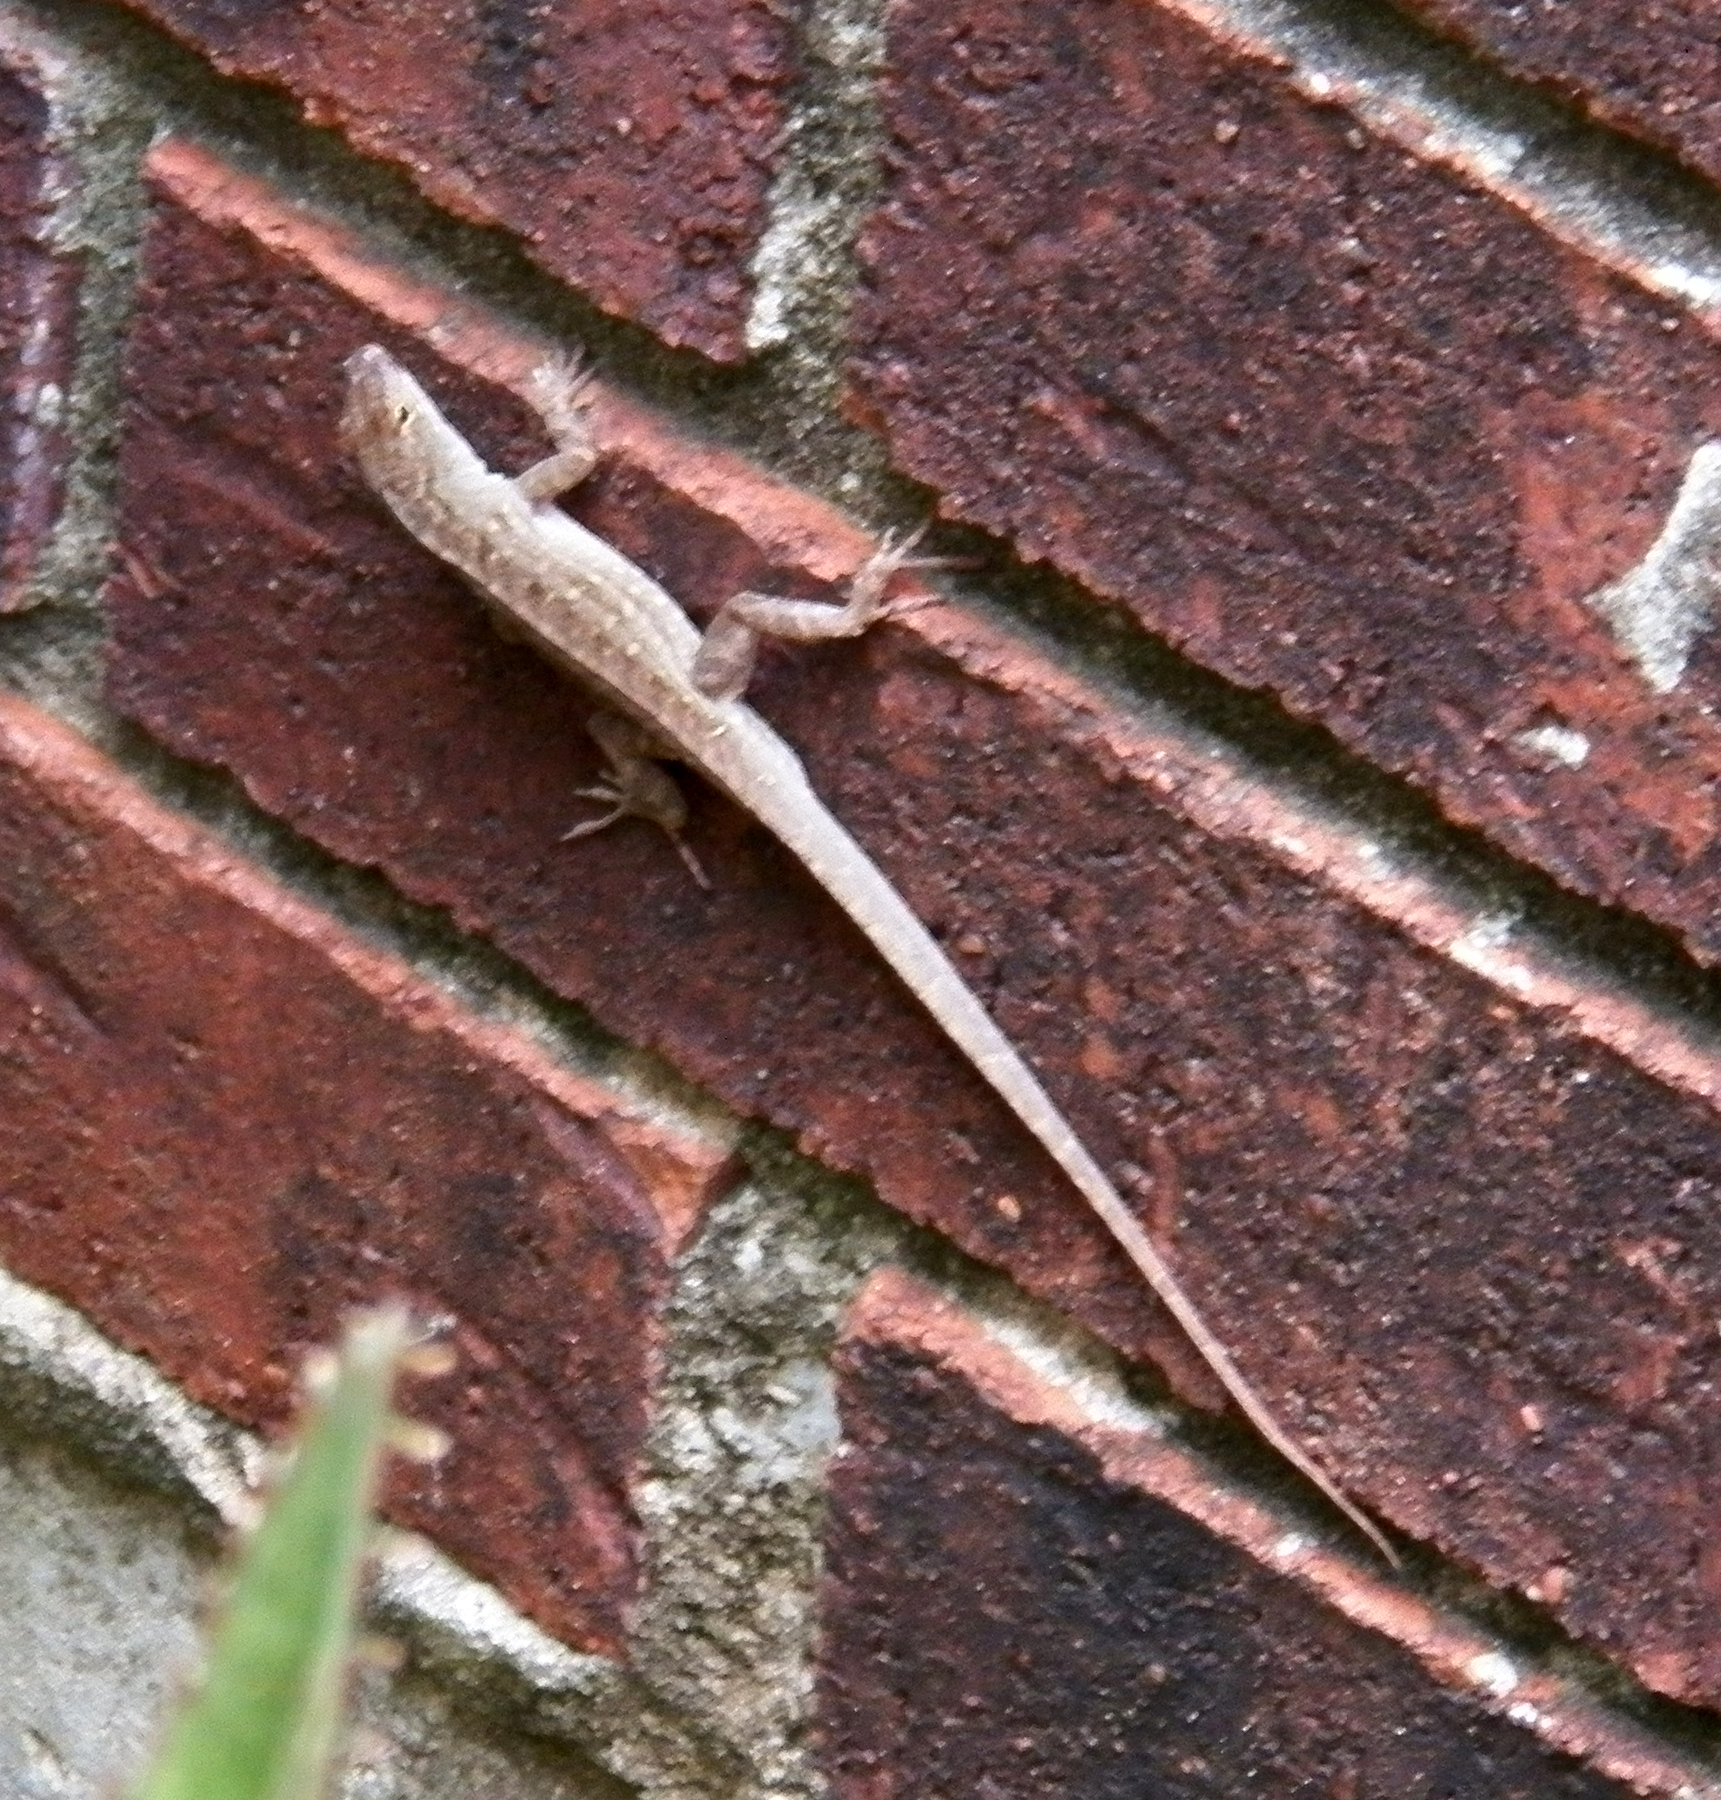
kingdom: Animalia
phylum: Chordata
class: Squamata
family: Dactyloidae
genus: Anolis
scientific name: Anolis sagrei
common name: Brown anole
